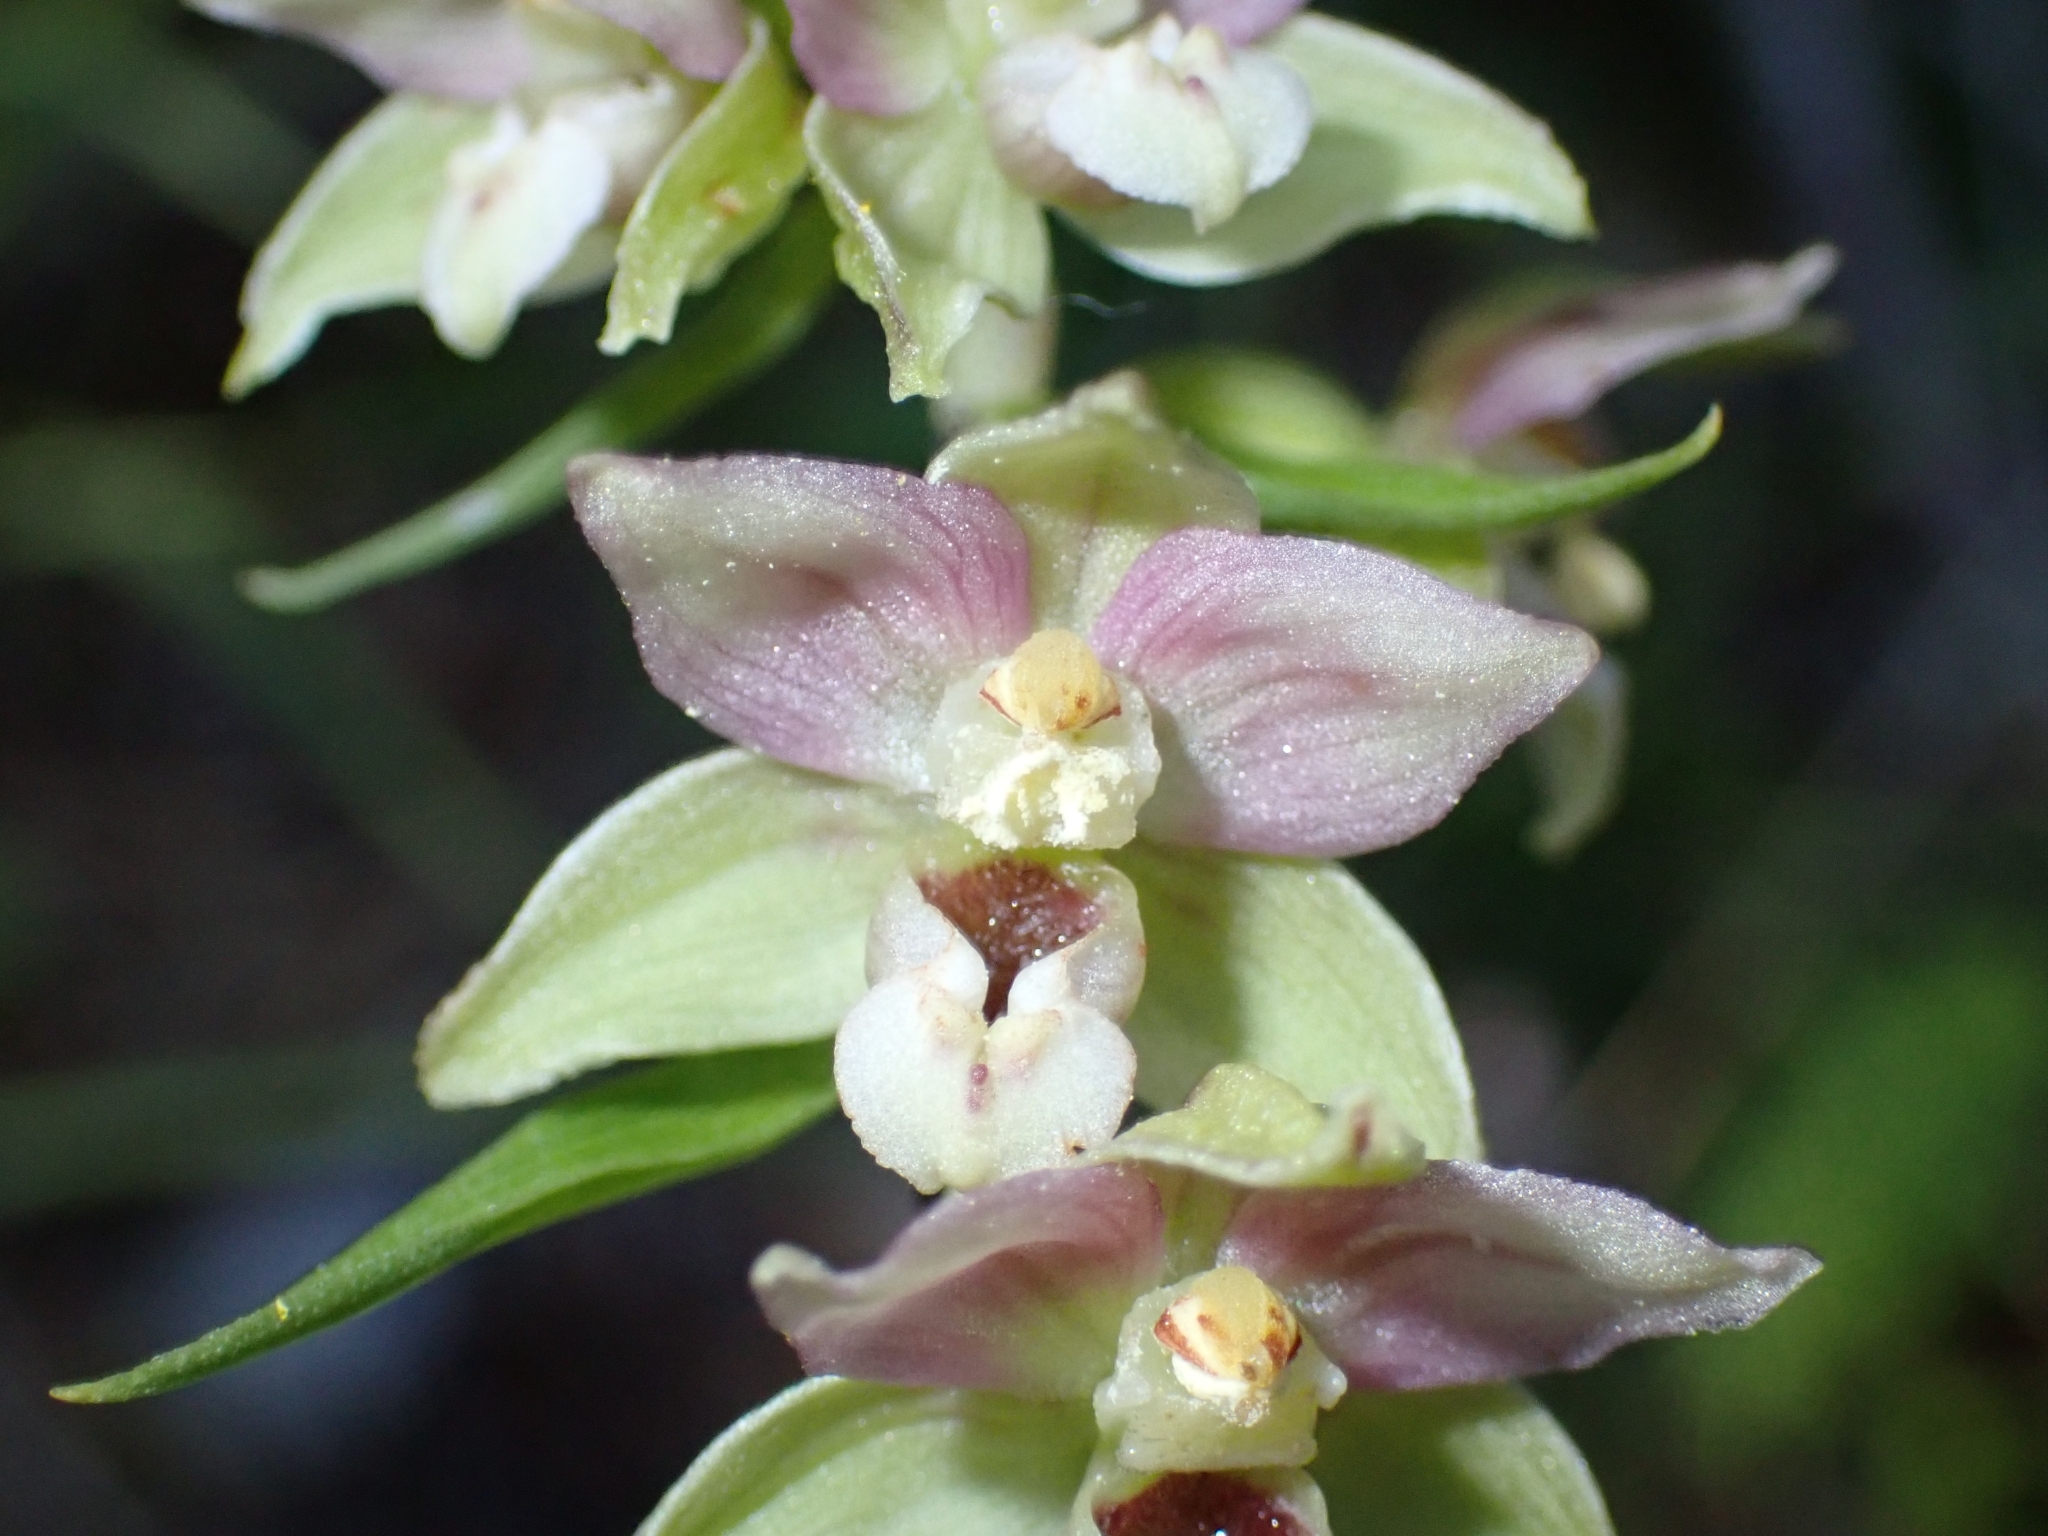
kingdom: Plantae
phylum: Tracheophyta
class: Liliopsida
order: Asparagales
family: Orchidaceae
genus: Epipactis
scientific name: Epipactis helleborine
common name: Broad-leaved helleborine
